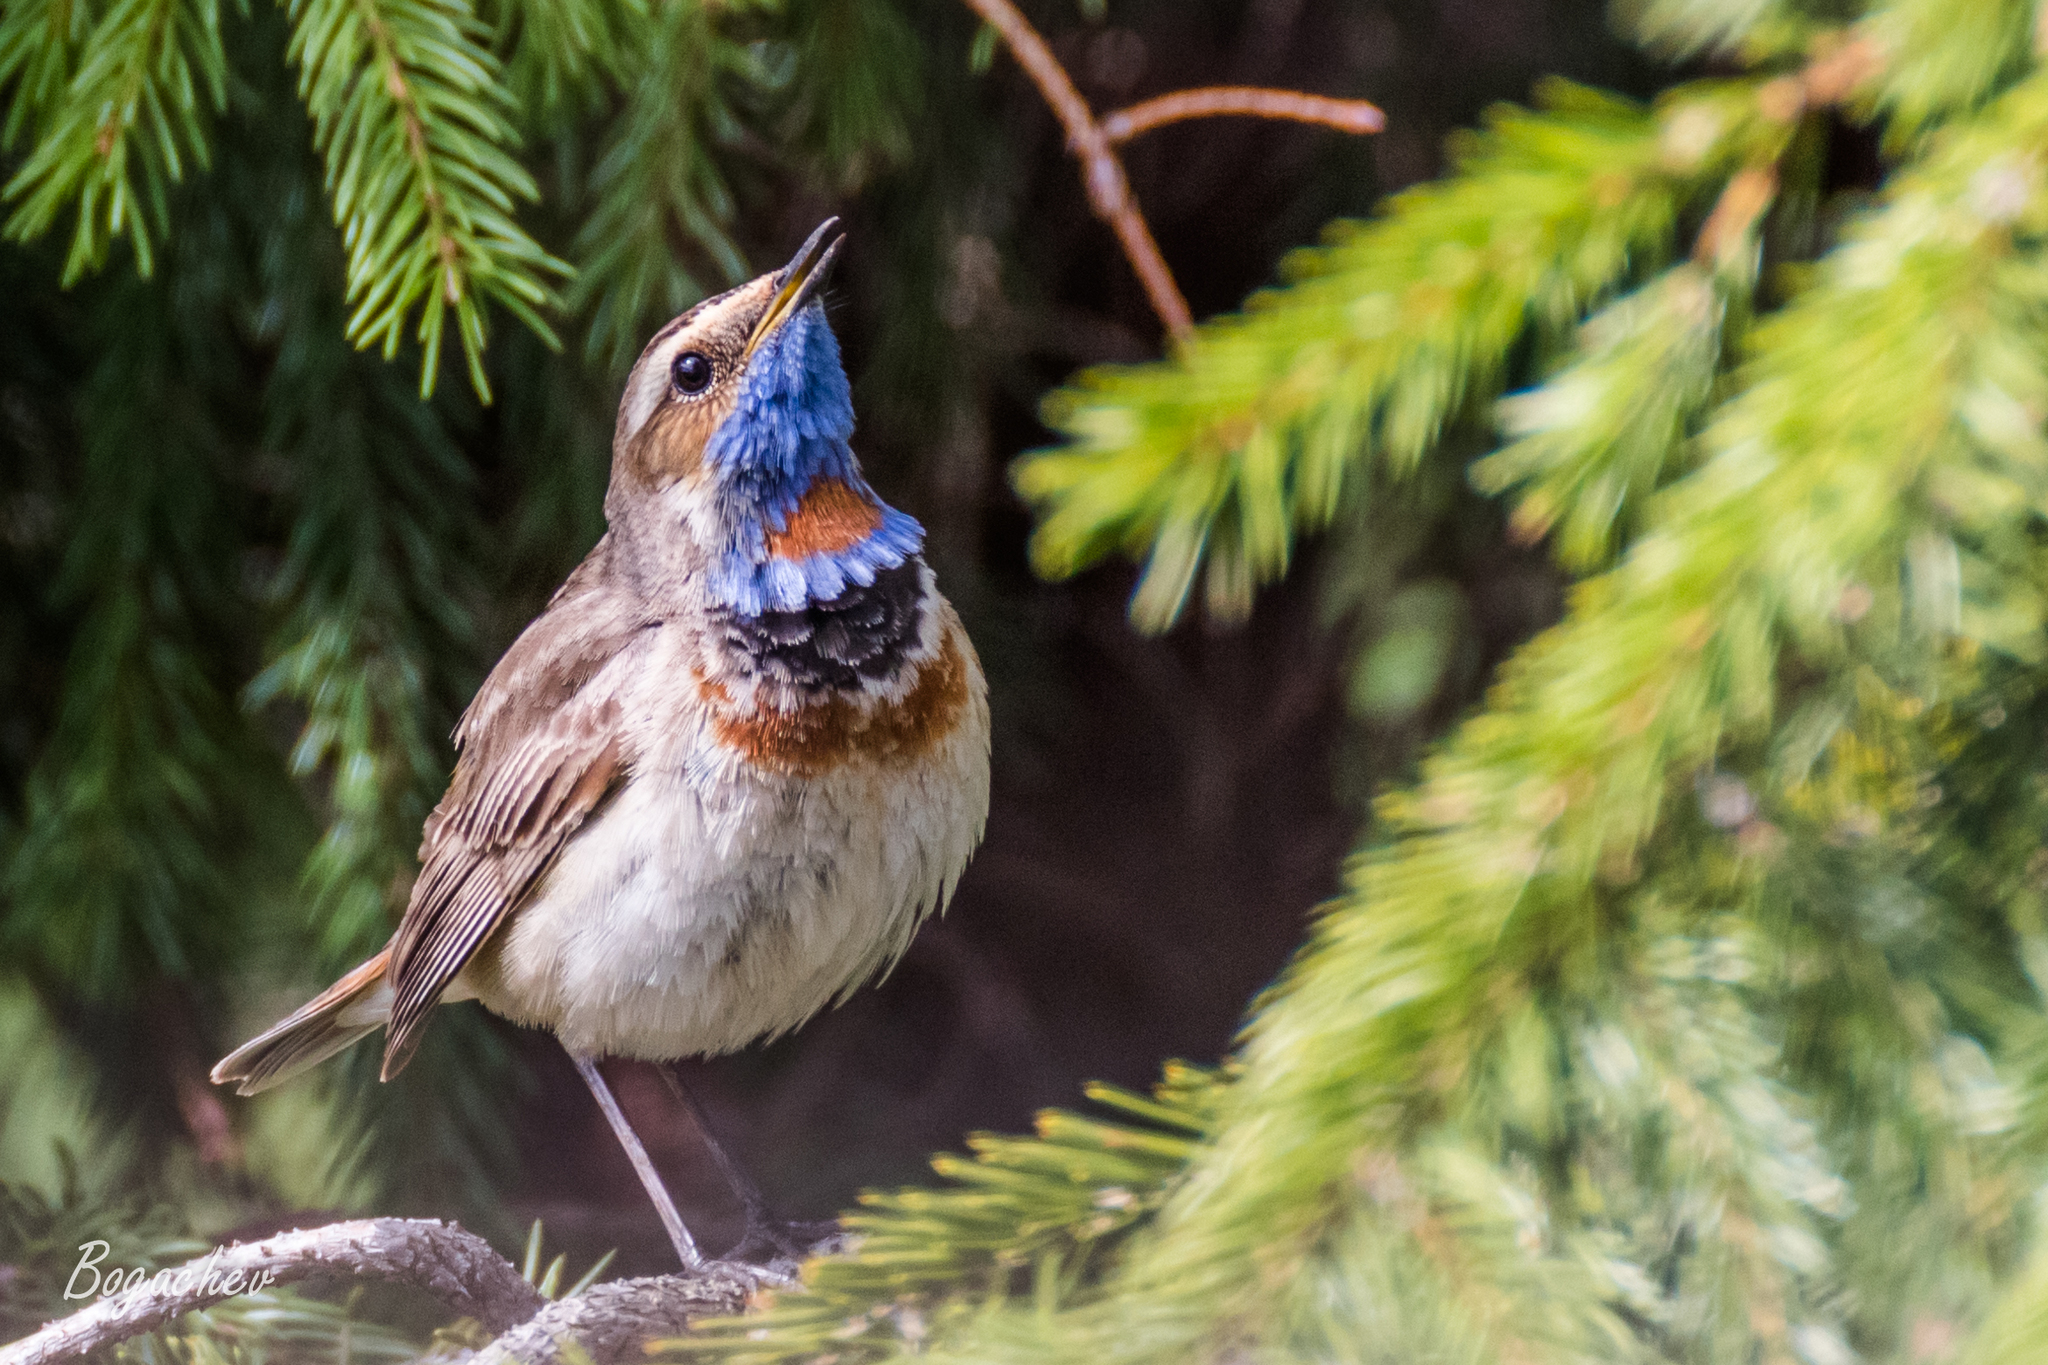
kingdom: Animalia
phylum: Chordata
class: Aves
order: Passeriformes
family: Muscicapidae
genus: Luscinia
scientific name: Luscinia svecica
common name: Bluethroat
